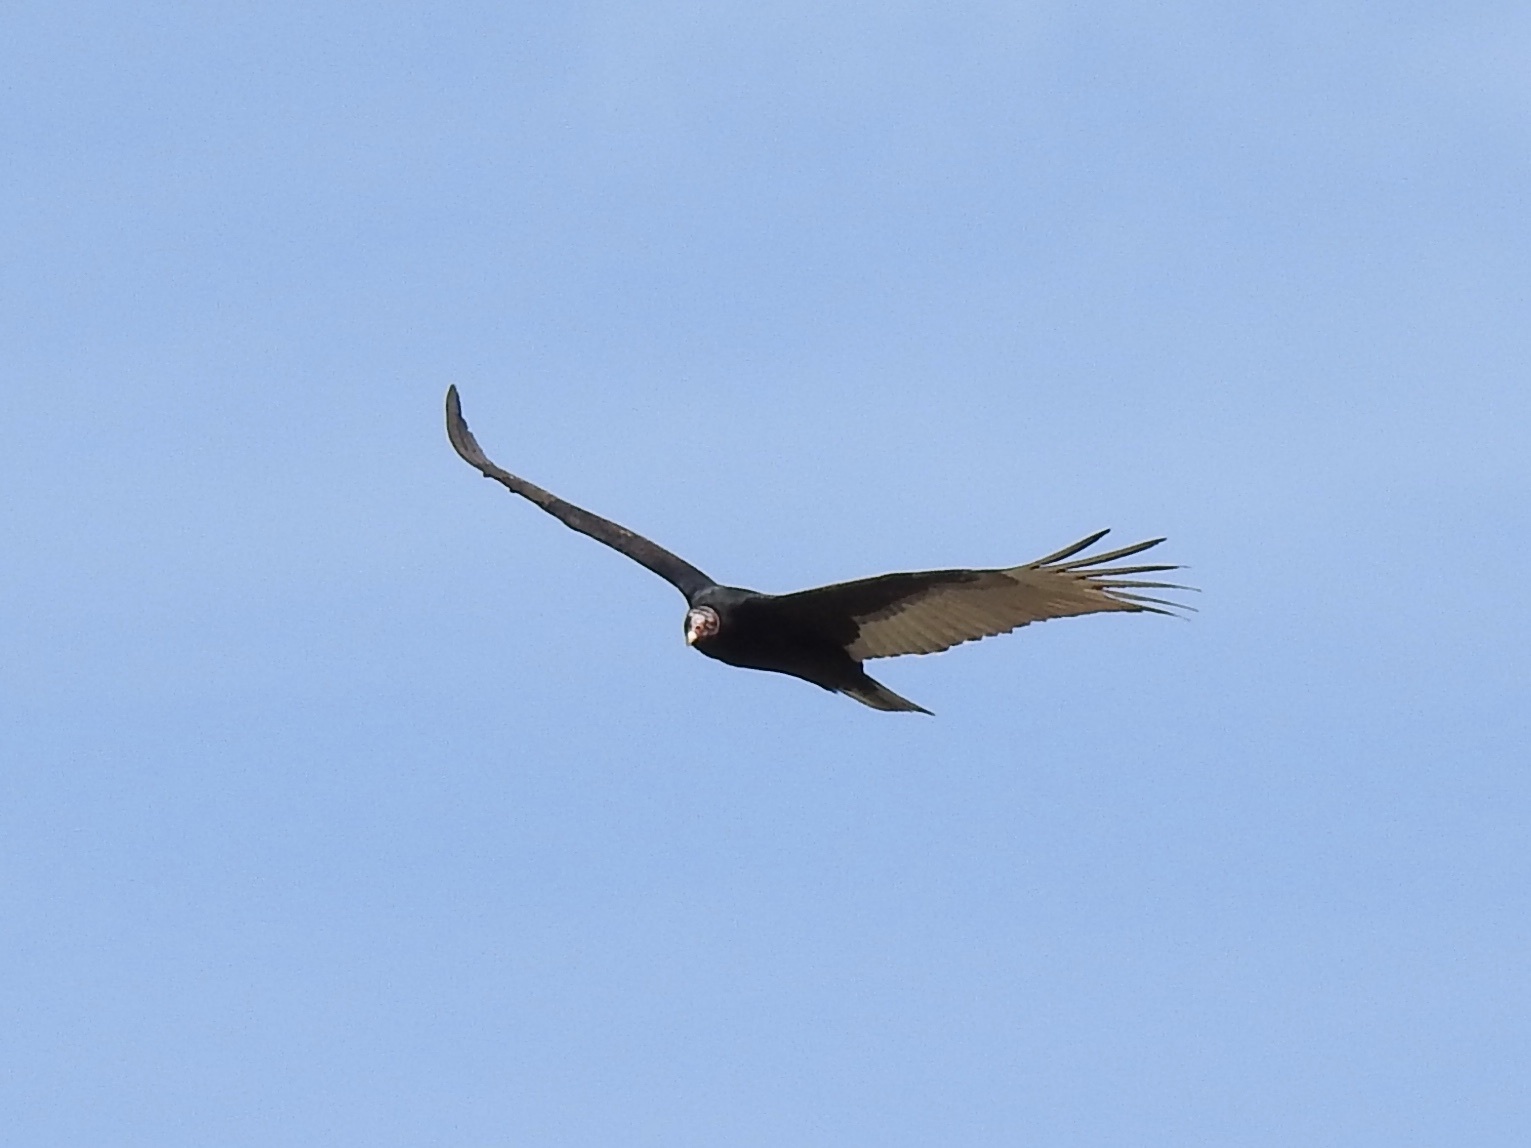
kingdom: Animalia
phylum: Chordata
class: Aves
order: Accipitriformes
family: Cathartidae
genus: Cathartes
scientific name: Cathartes aura
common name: Turkey vulture
